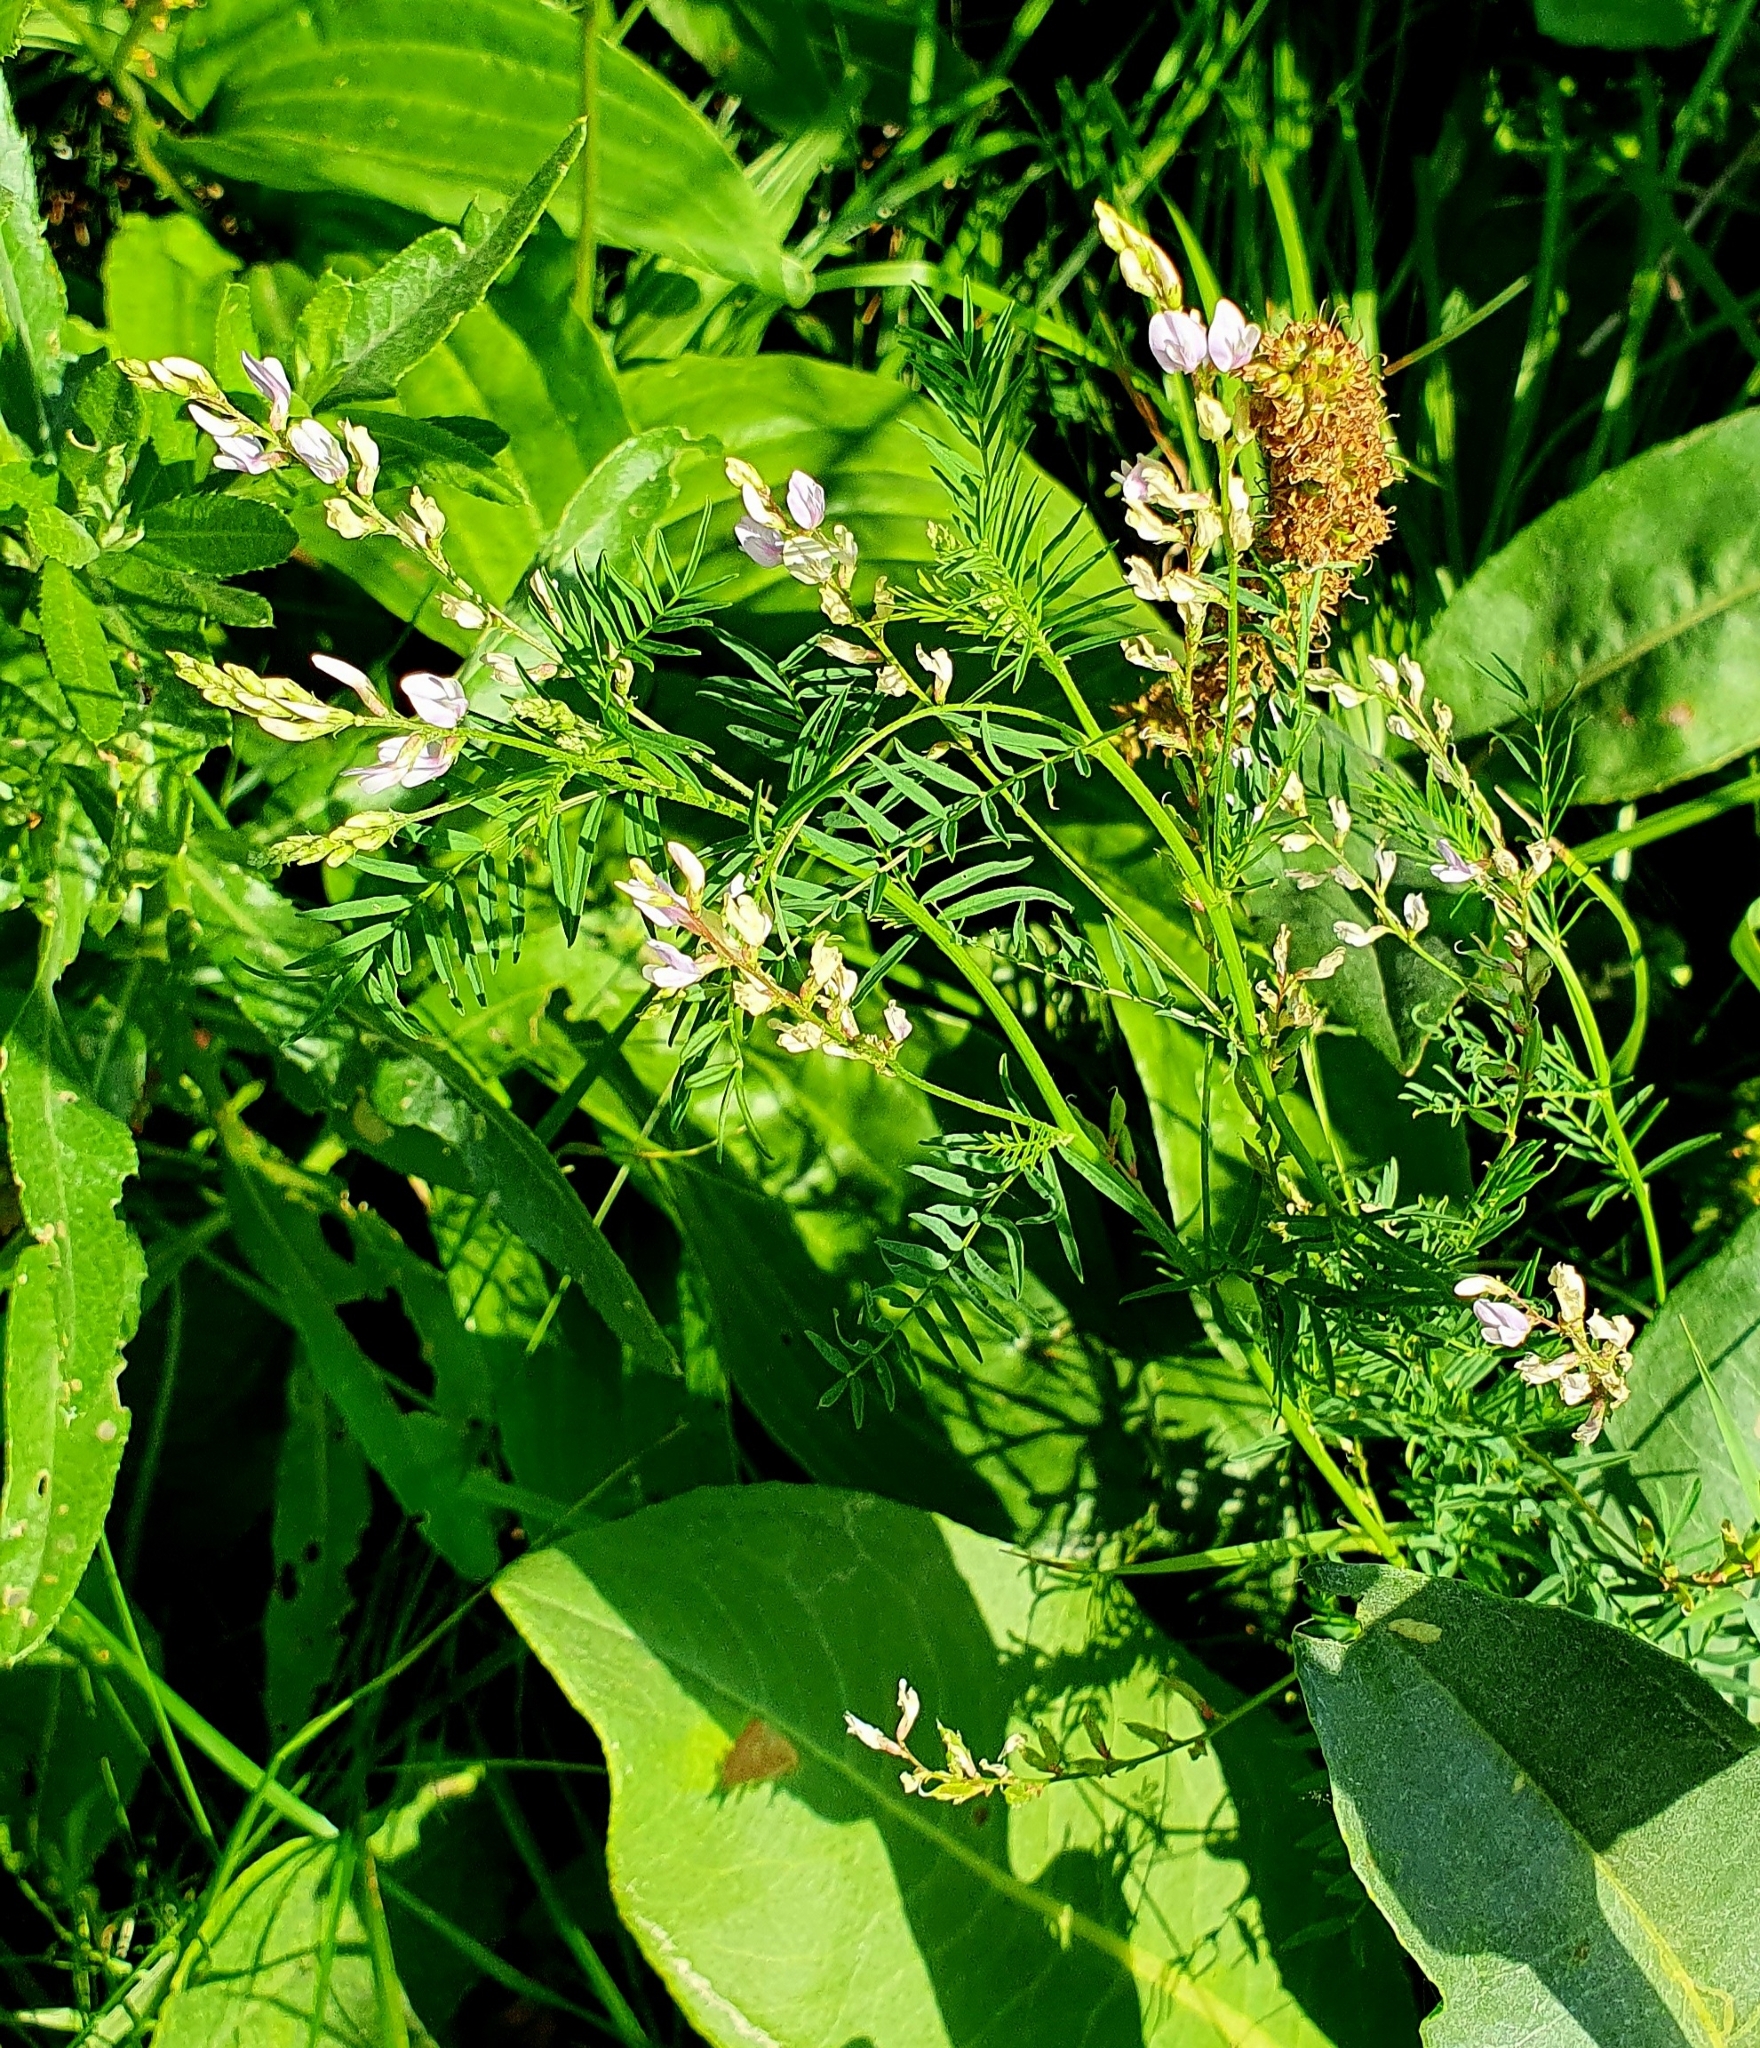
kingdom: Plantae
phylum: Tracheophyta
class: Magnoliopsida
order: Fabales
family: Fabaceae
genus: Astragalus
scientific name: Astragalus sulcatus
